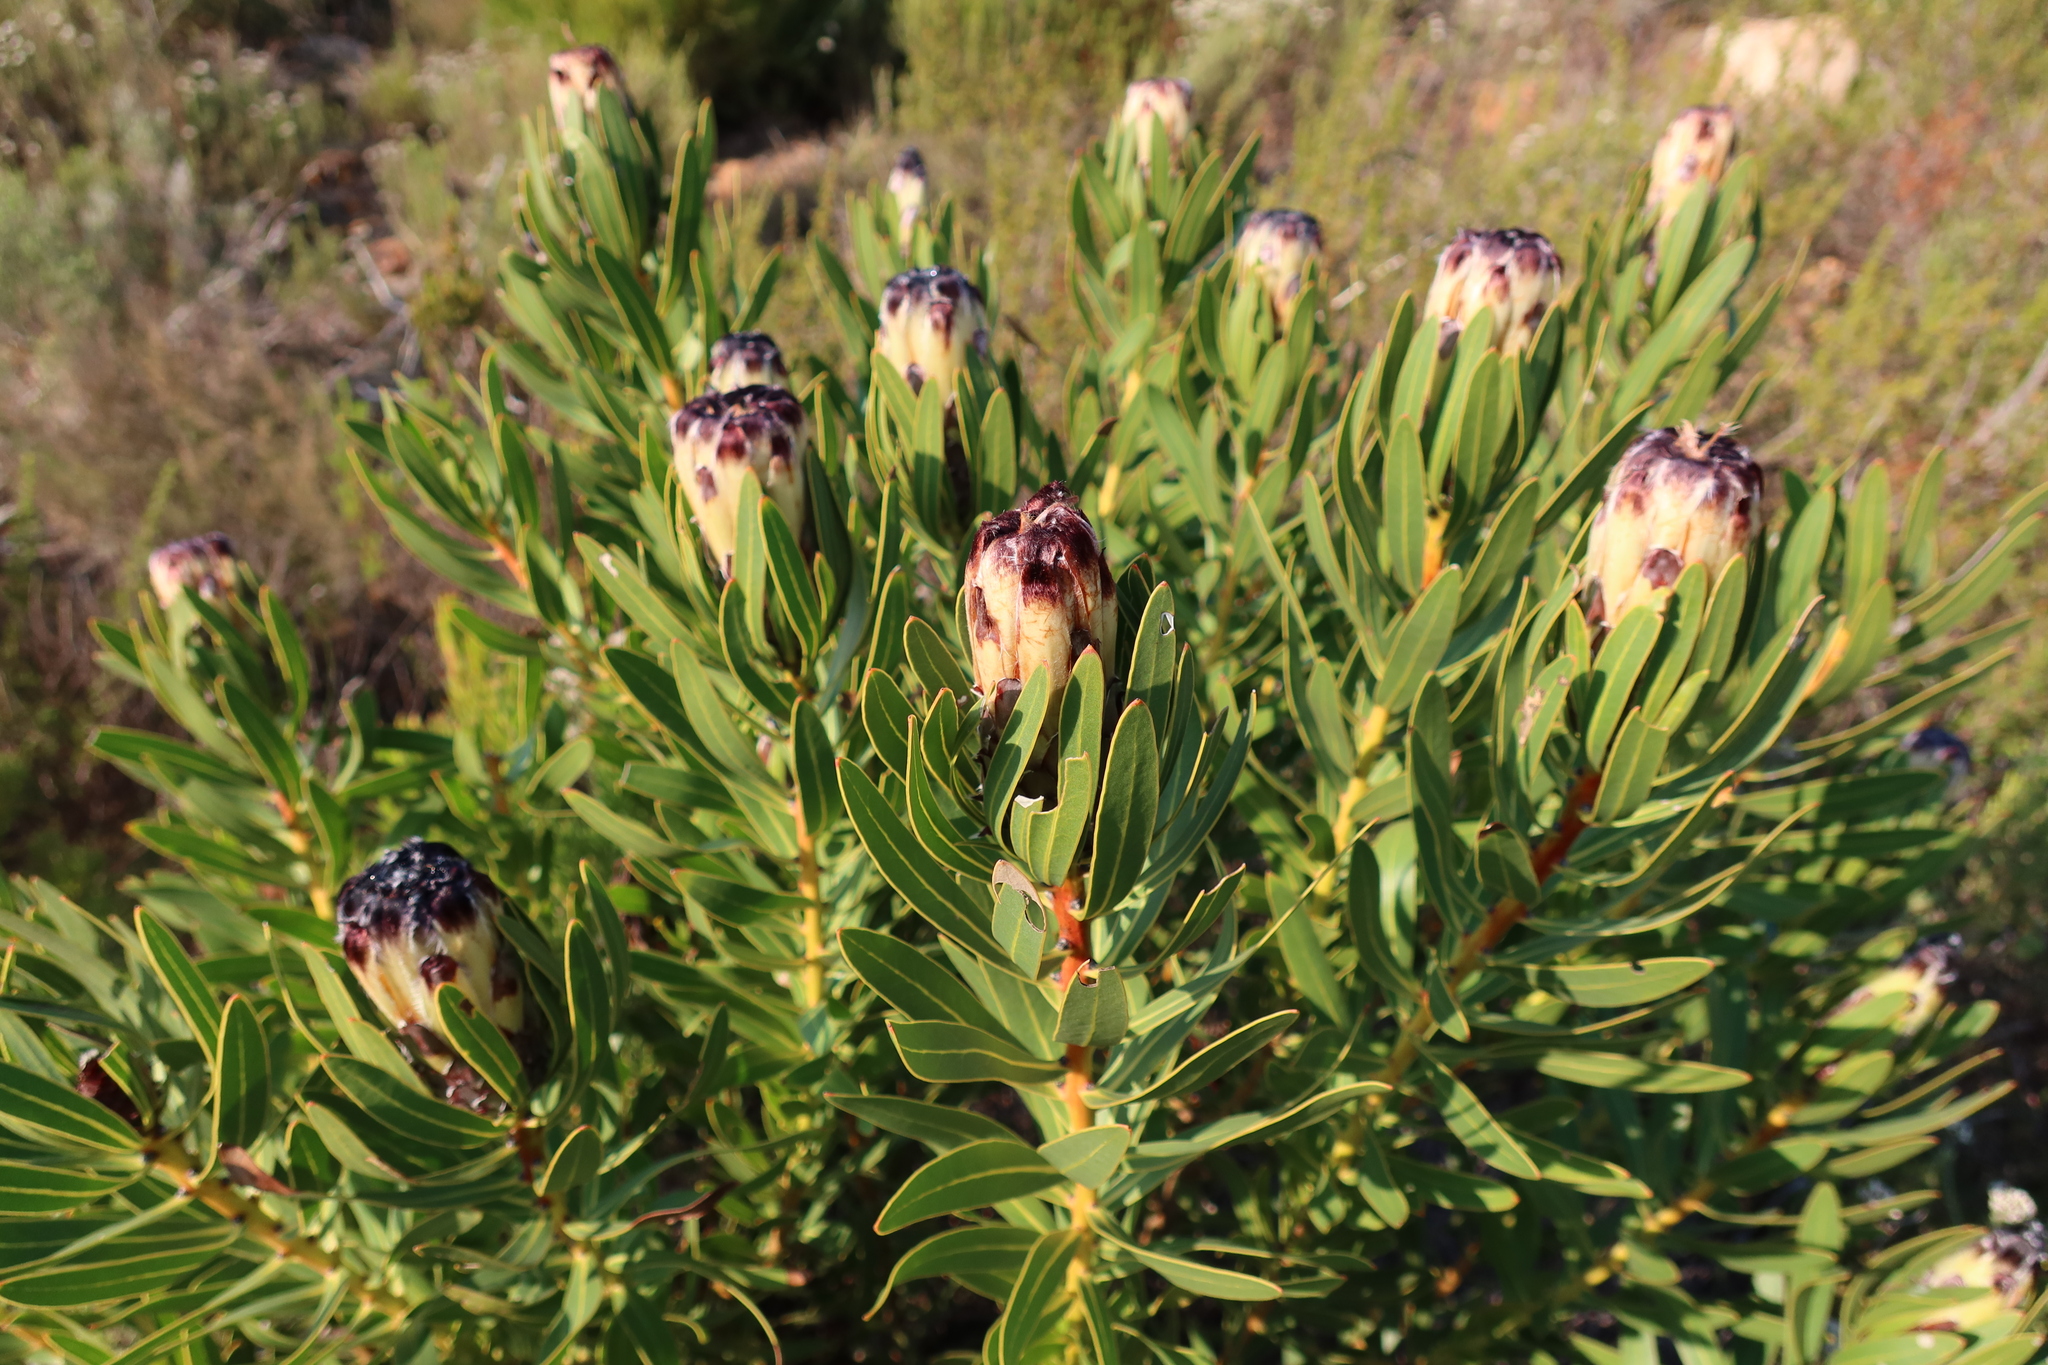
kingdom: Plantae
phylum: Tracheophyta
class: Magnoliopsida
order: Proteales
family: Proteaceae
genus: Protea
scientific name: Protea lepidocarpodendron
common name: Black-bearded protea
